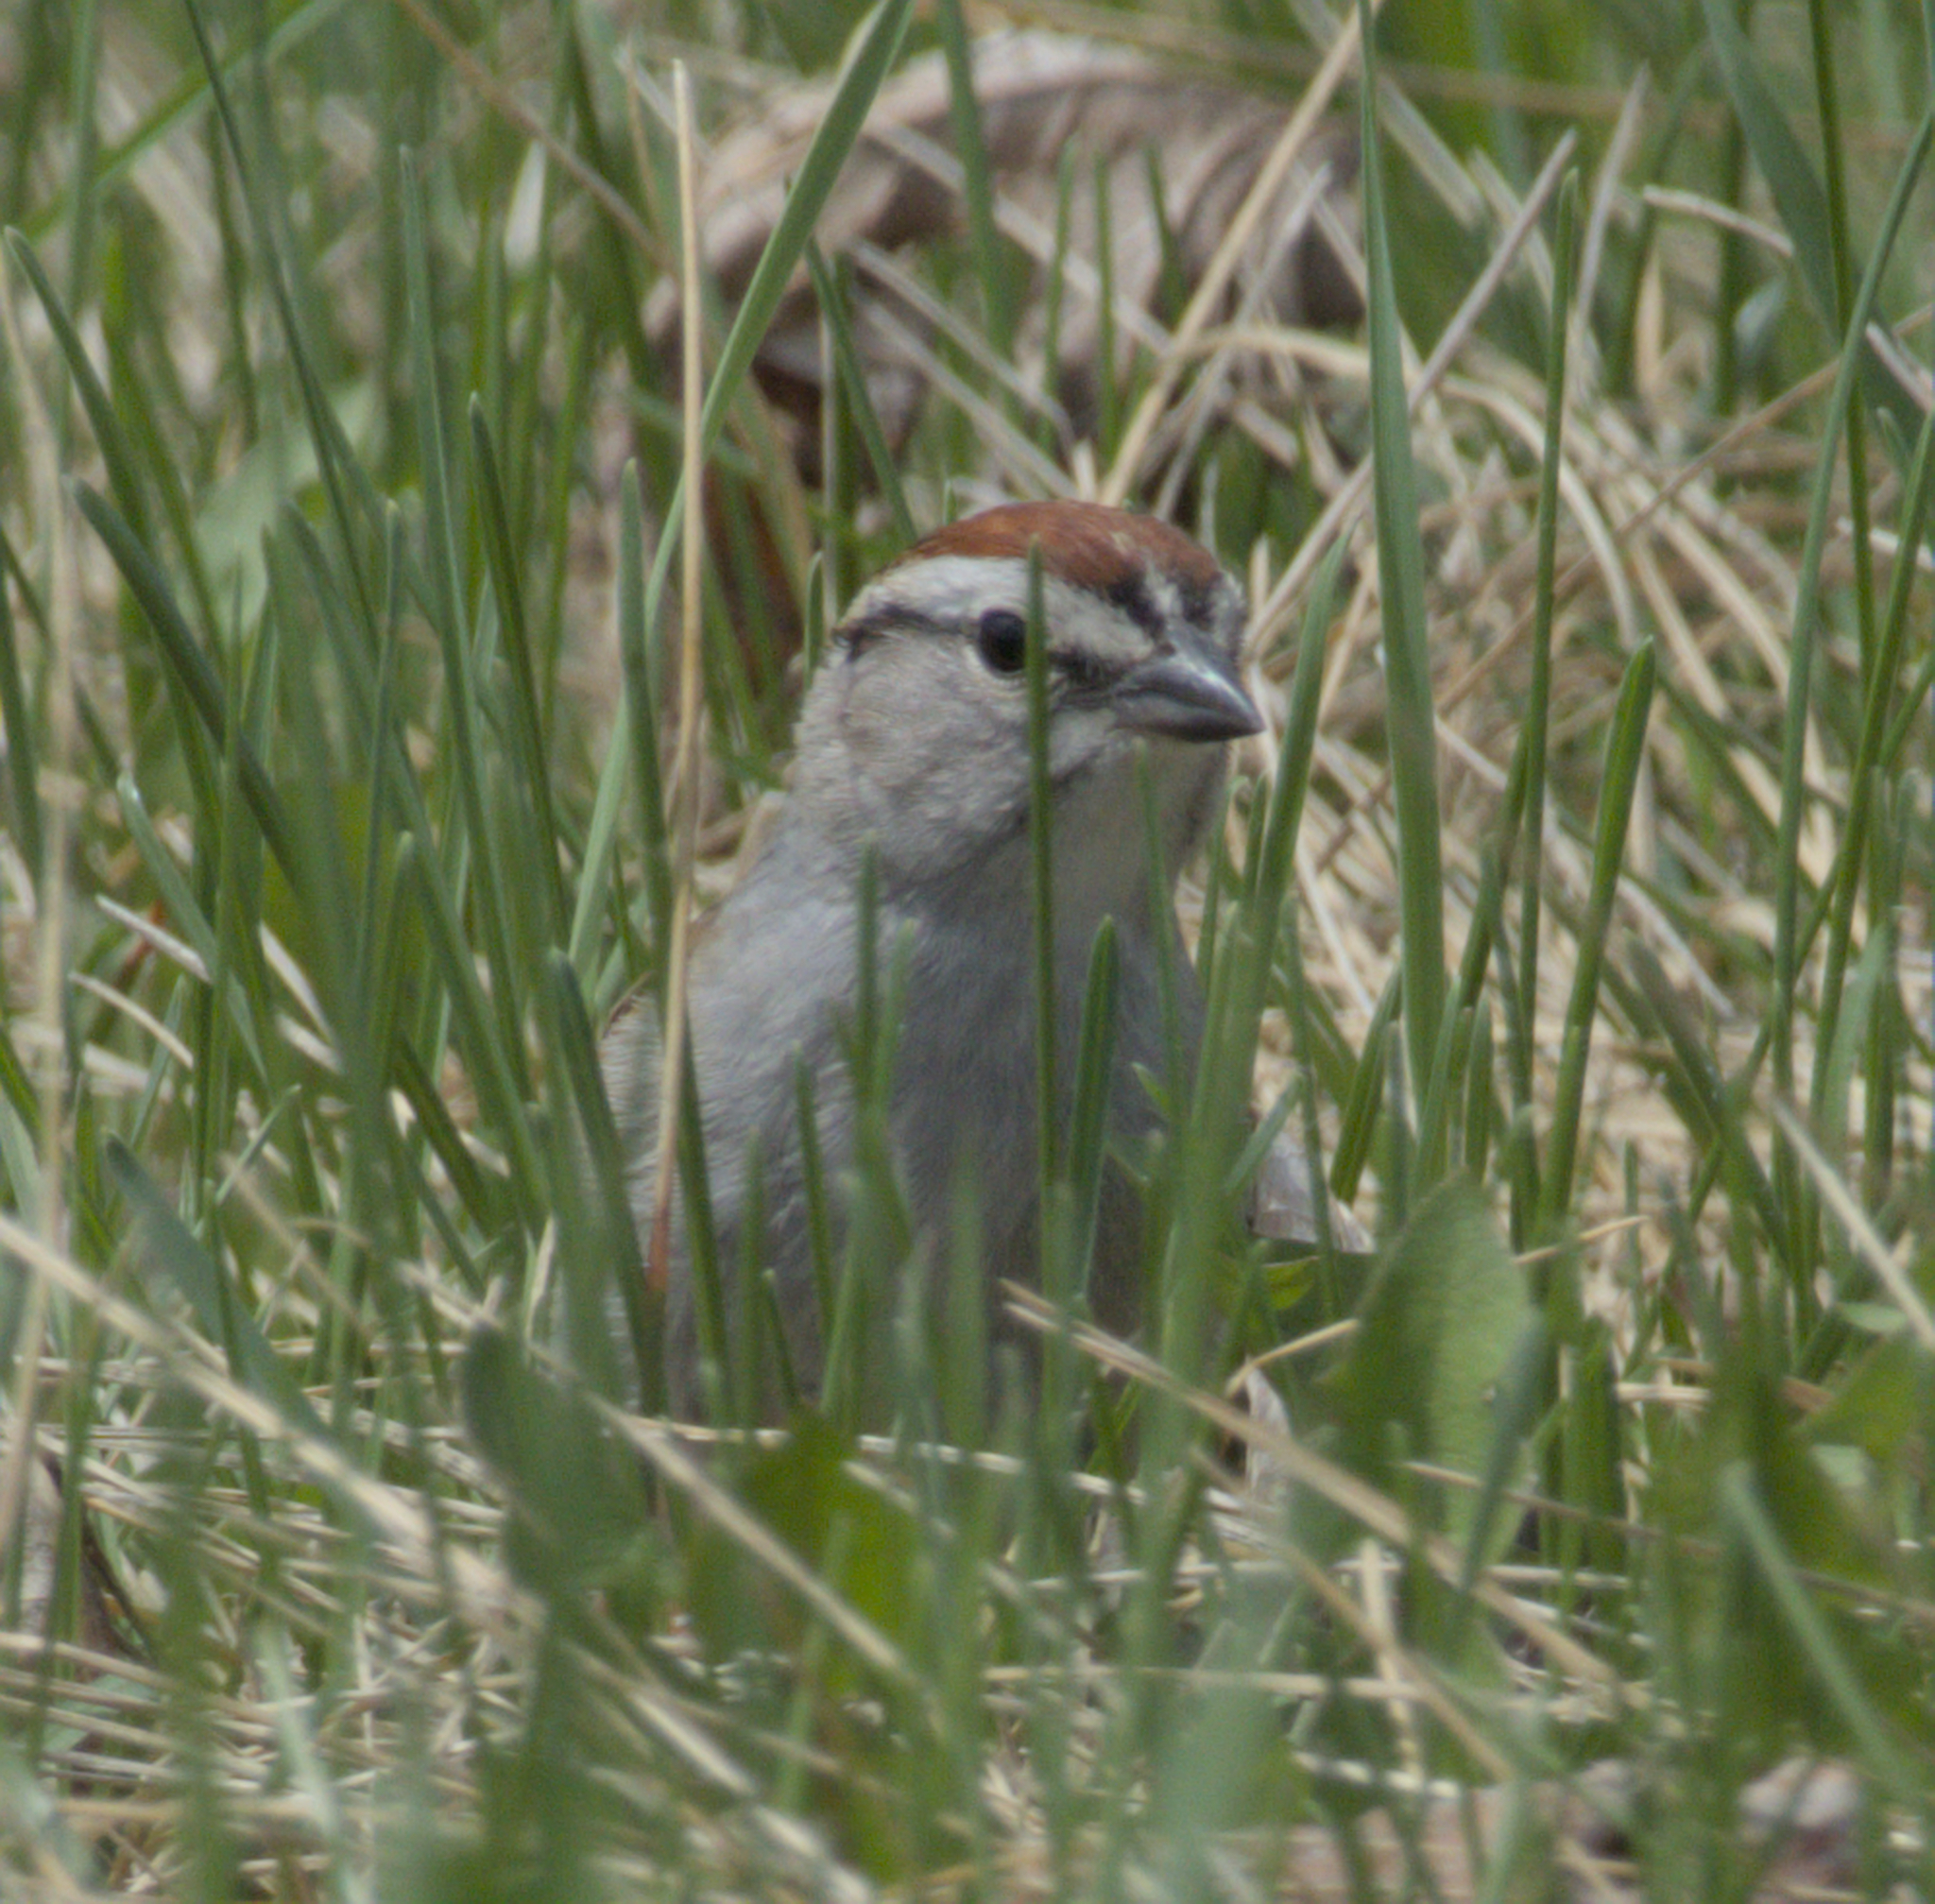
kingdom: Animalia
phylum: Chordata
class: Aves
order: Passeriformes
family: Passerellidae
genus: Spizella
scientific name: Spizella passerina
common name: Chipping sparrow
